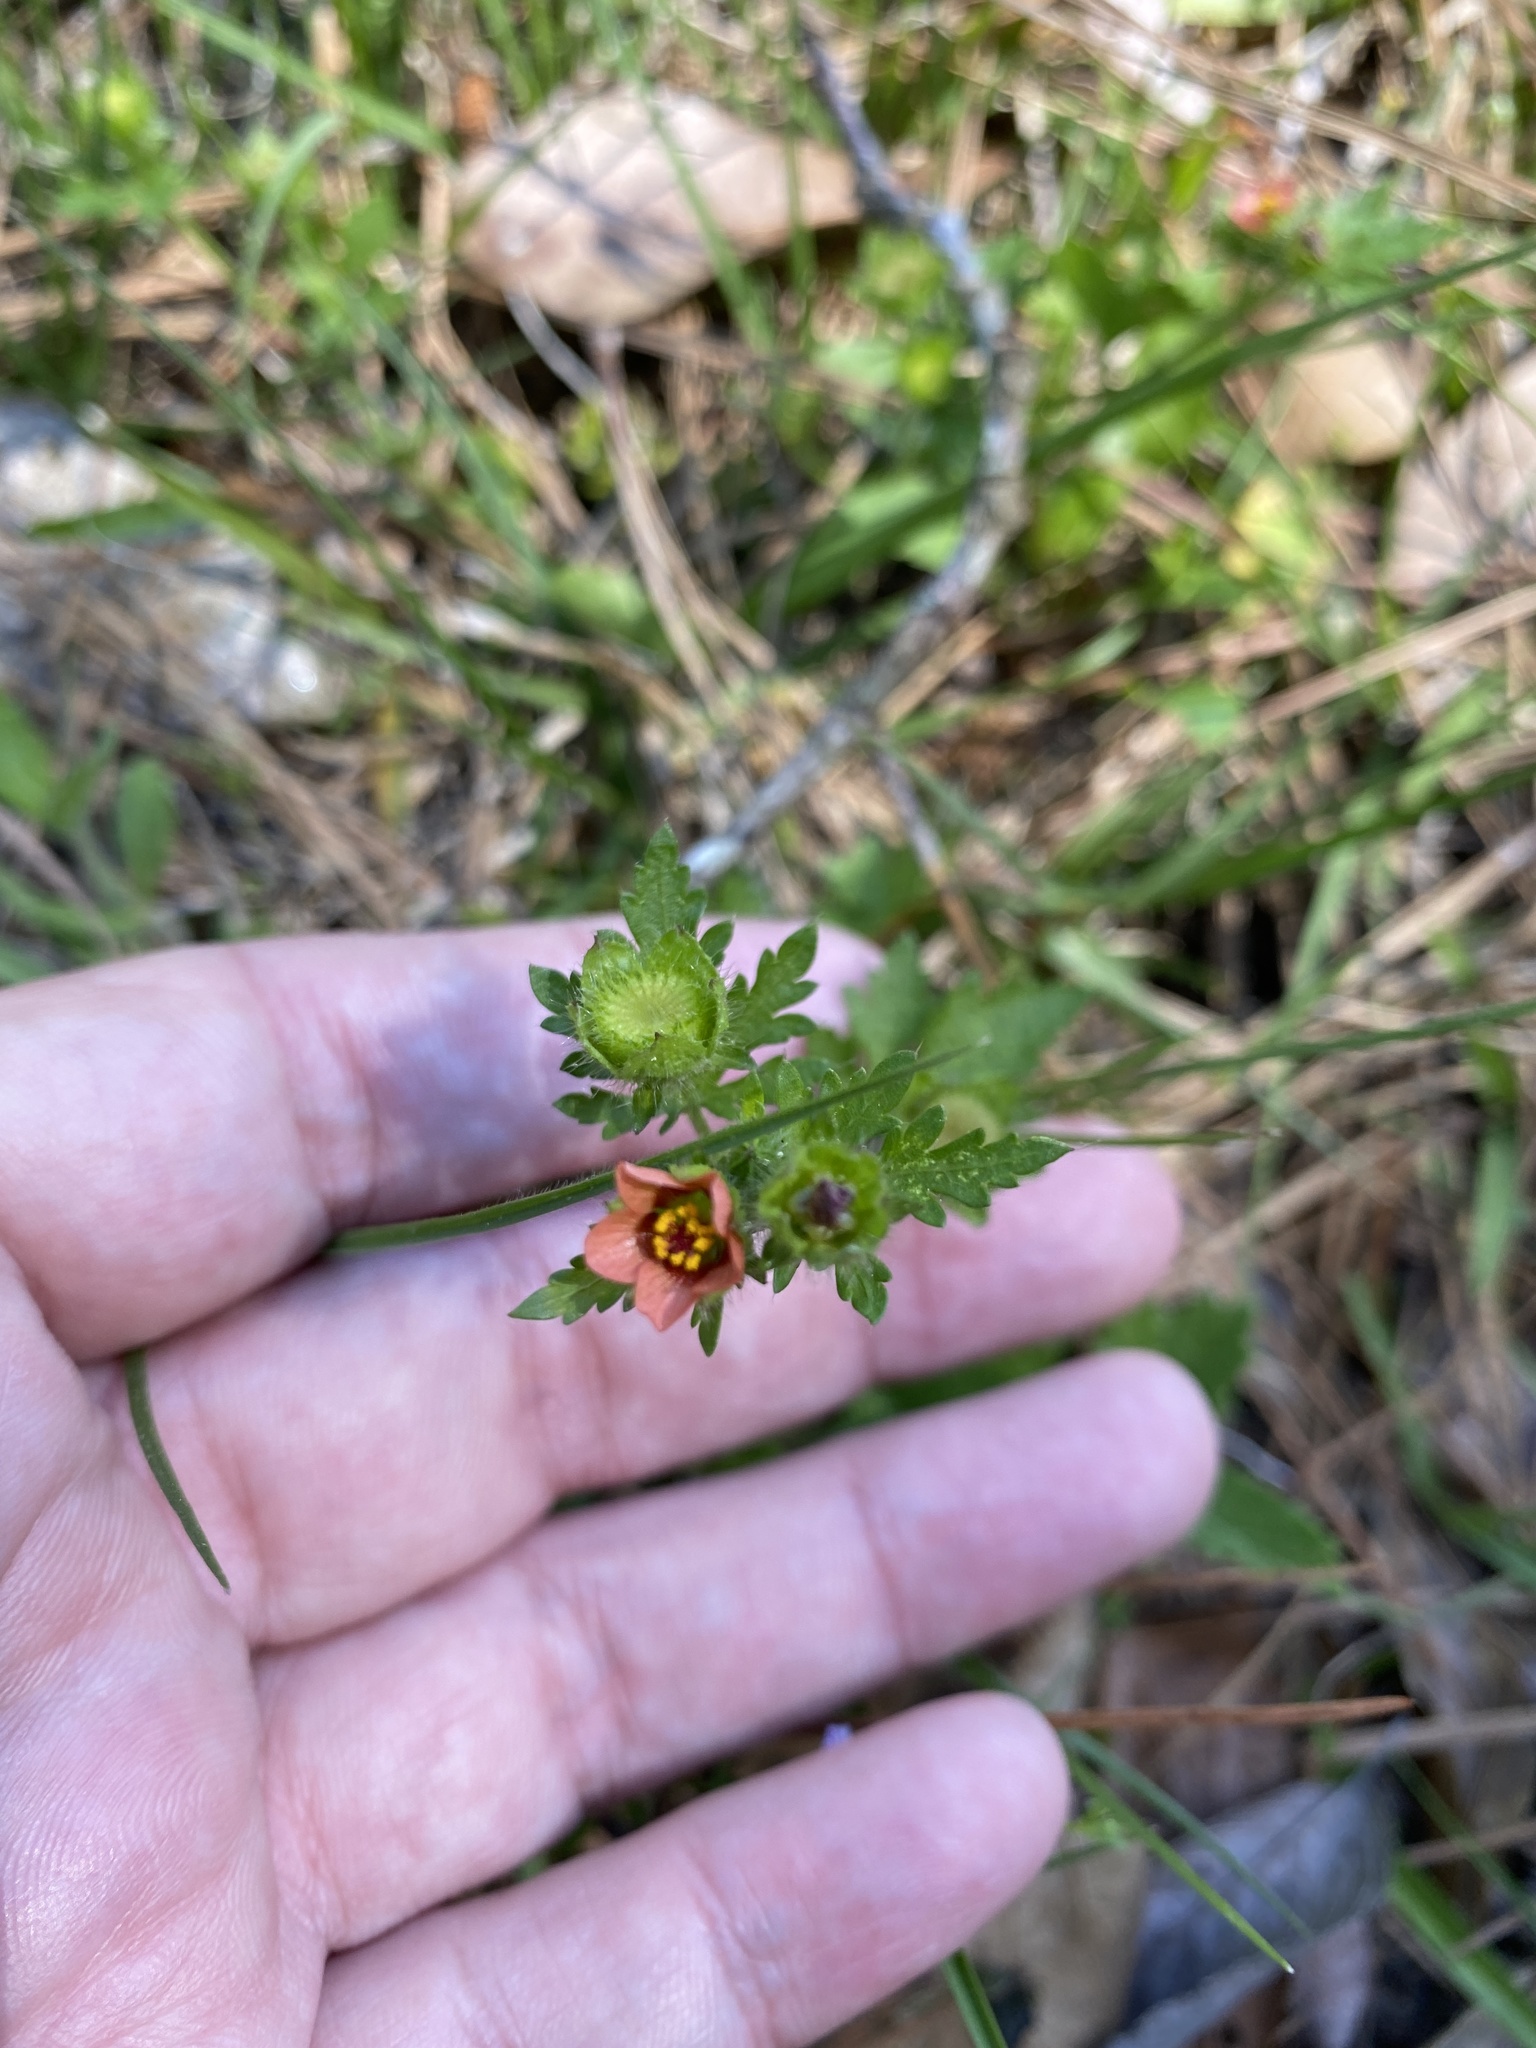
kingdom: Plantae
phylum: Tracheophyta
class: Magnoliopsida
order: Malvales
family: Malvaceae
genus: Modiola
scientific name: Modiola caroliniana
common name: Carolina bristlemallow
